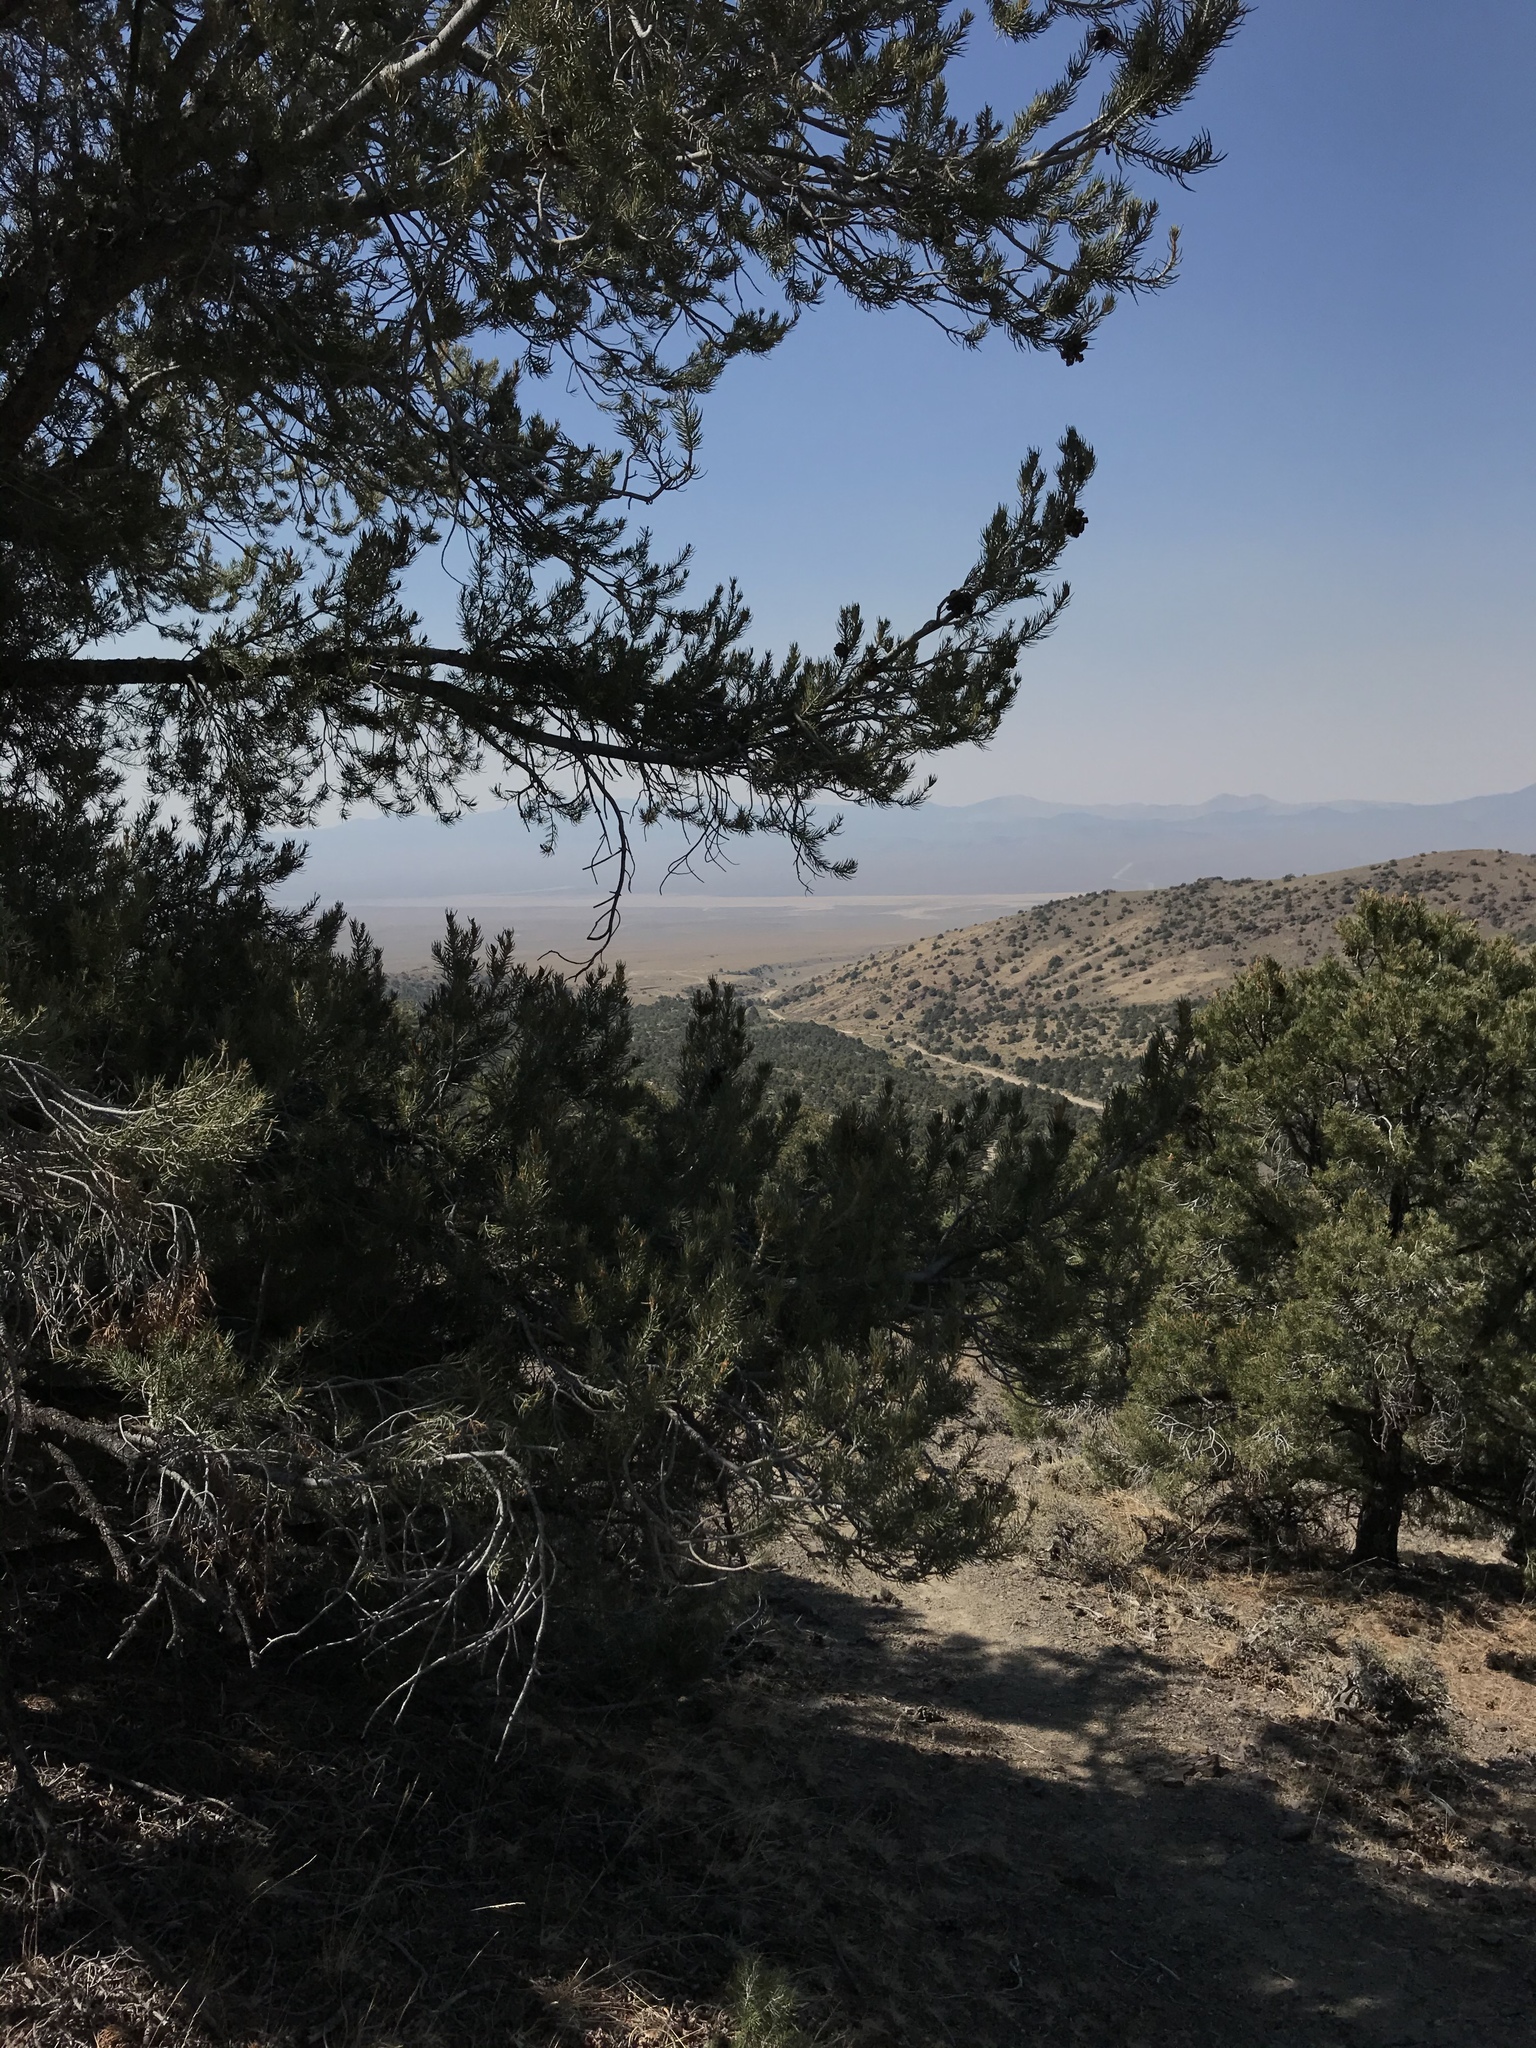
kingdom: Plantae
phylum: Tracheophyta
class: Pinopsida
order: Pinales
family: Pinaceae
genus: Pinus
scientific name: Pinus monophylla
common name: One-leaved nut pine
